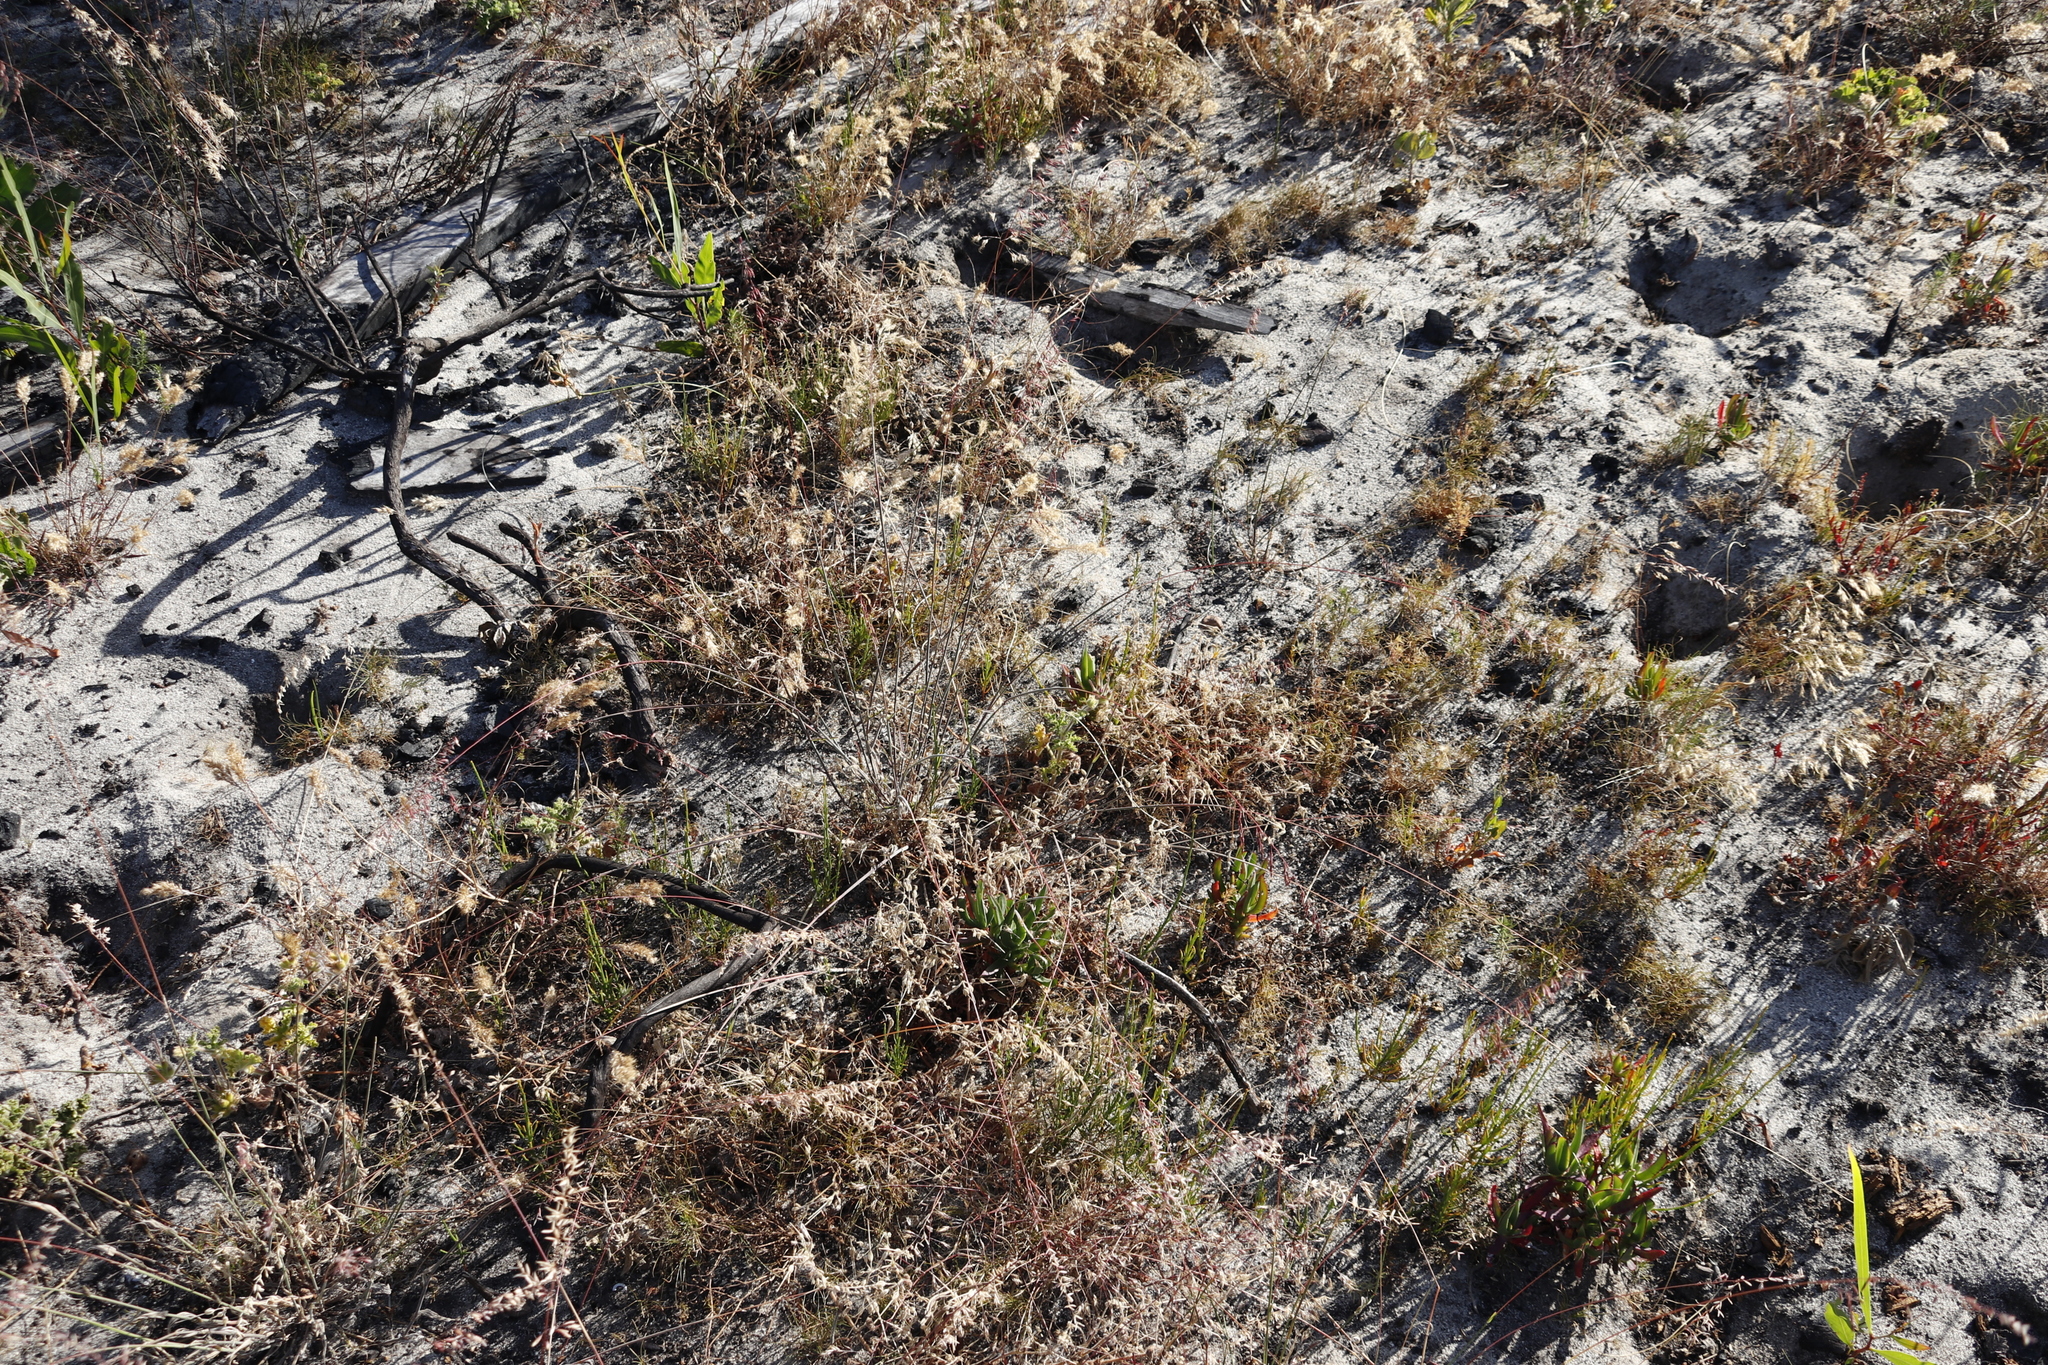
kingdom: Plantae
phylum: Tracheophyta
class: Magnoliopsida
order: Geraniales
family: Geraniaceae
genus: Pelargonium
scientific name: Pelargonium althaeoides
